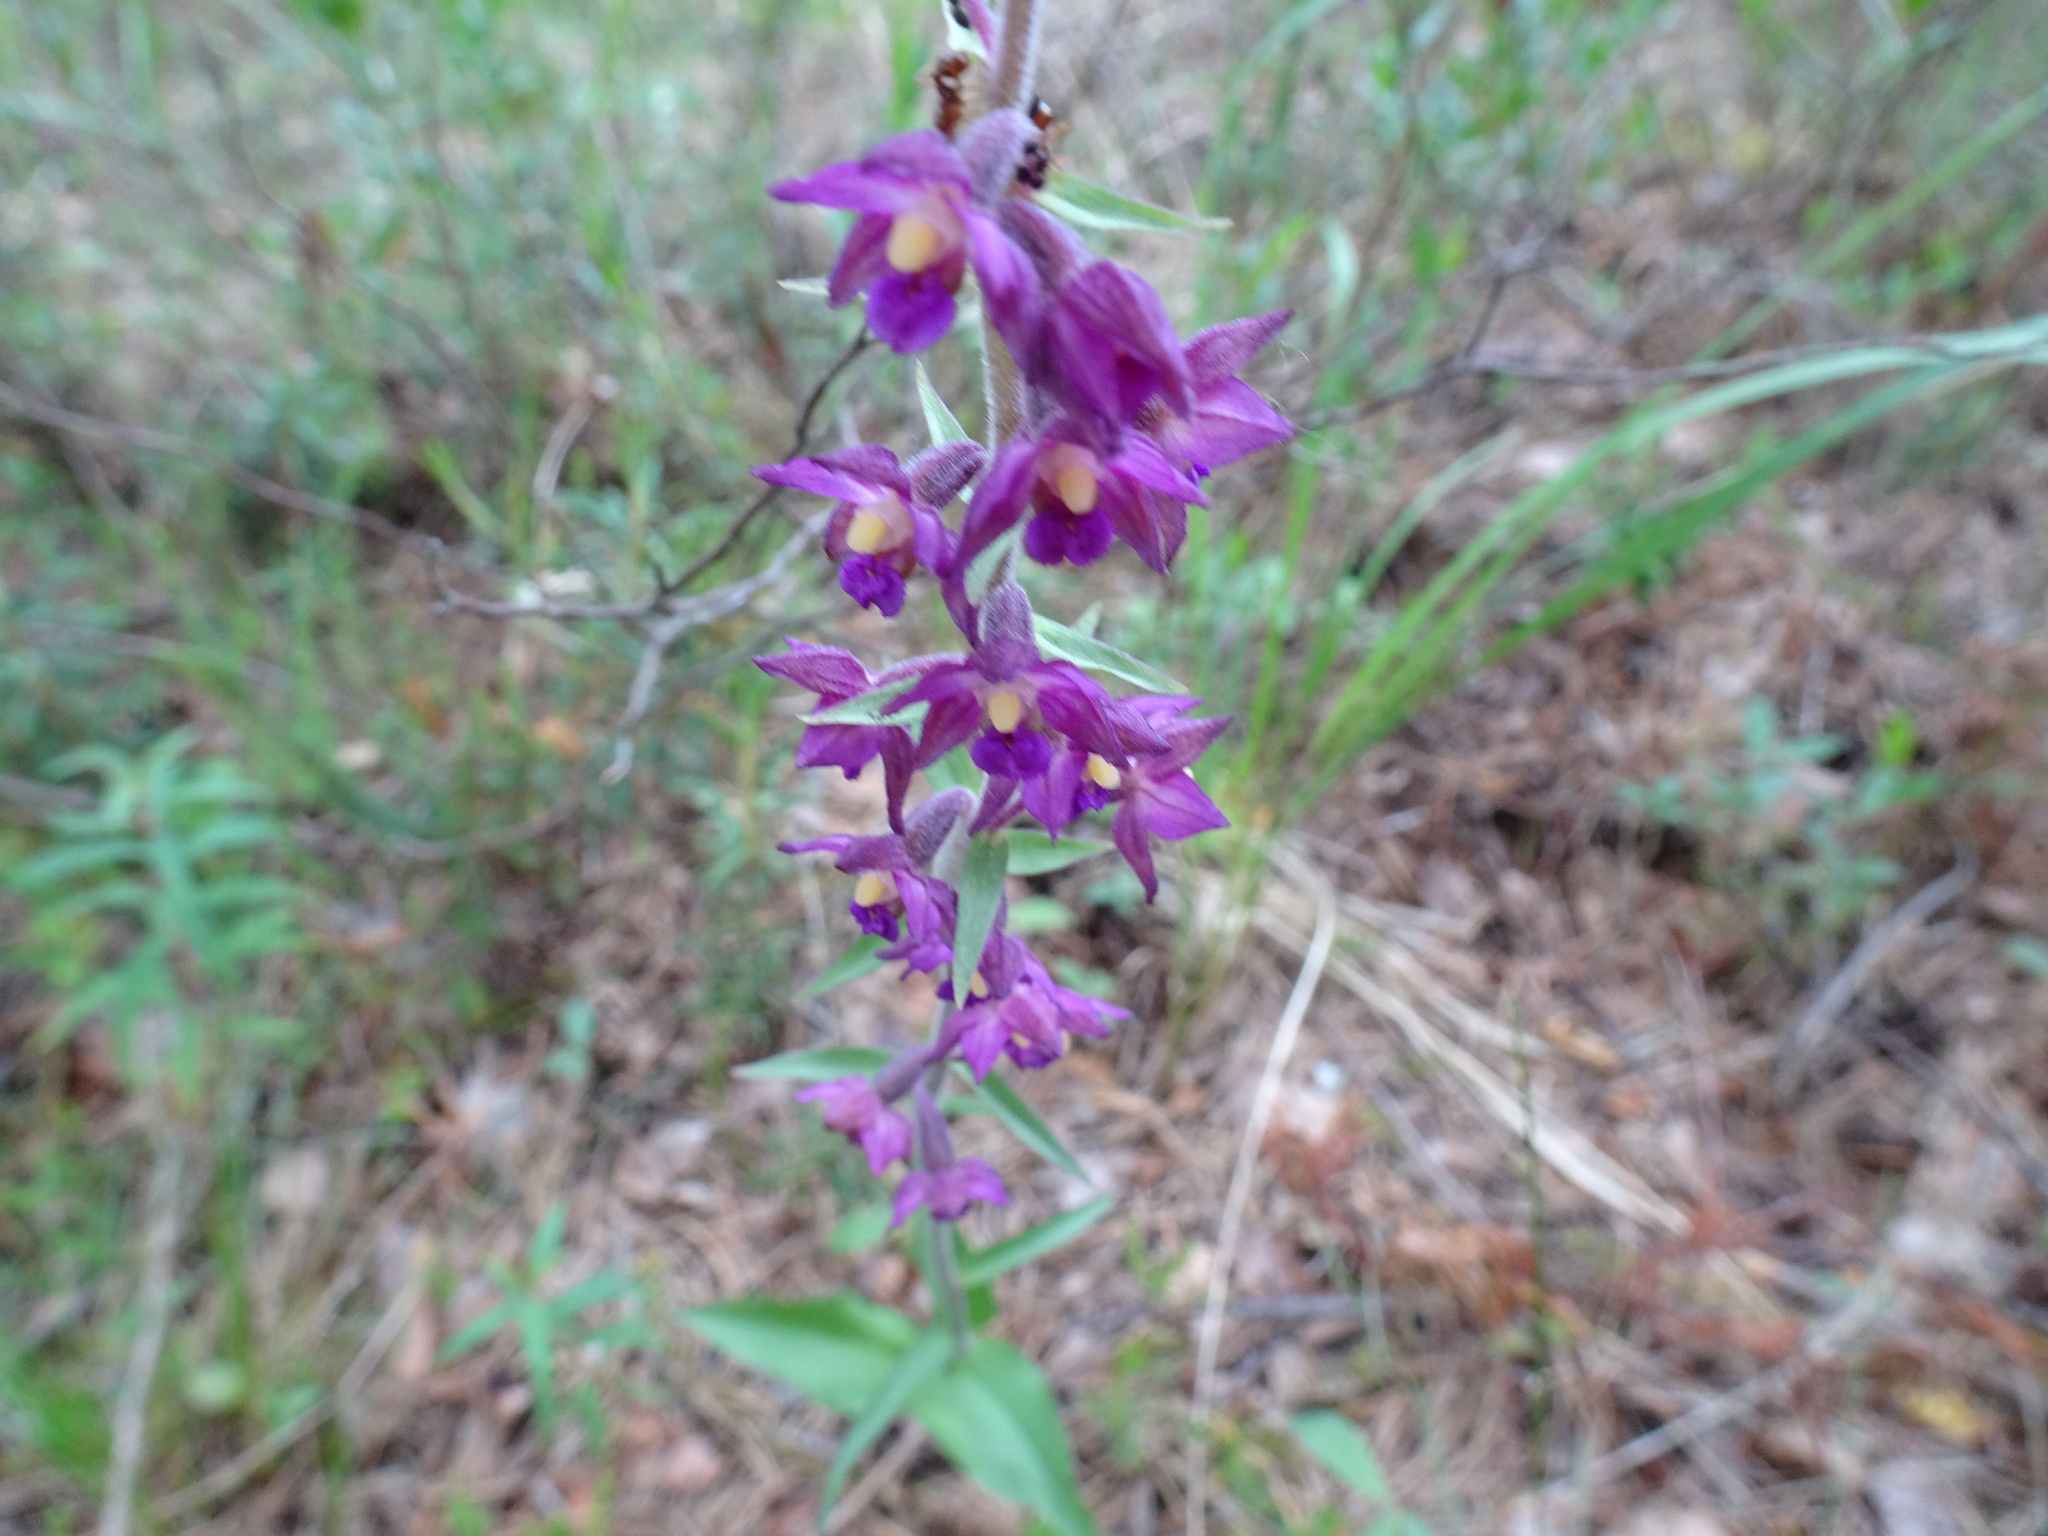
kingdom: Plantae
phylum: Tracheophyta
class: Liliopsida
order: Asparagales
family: Orchidaceae
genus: Epipactis
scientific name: Epipactis atrorubens
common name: Dark-red helleborine
